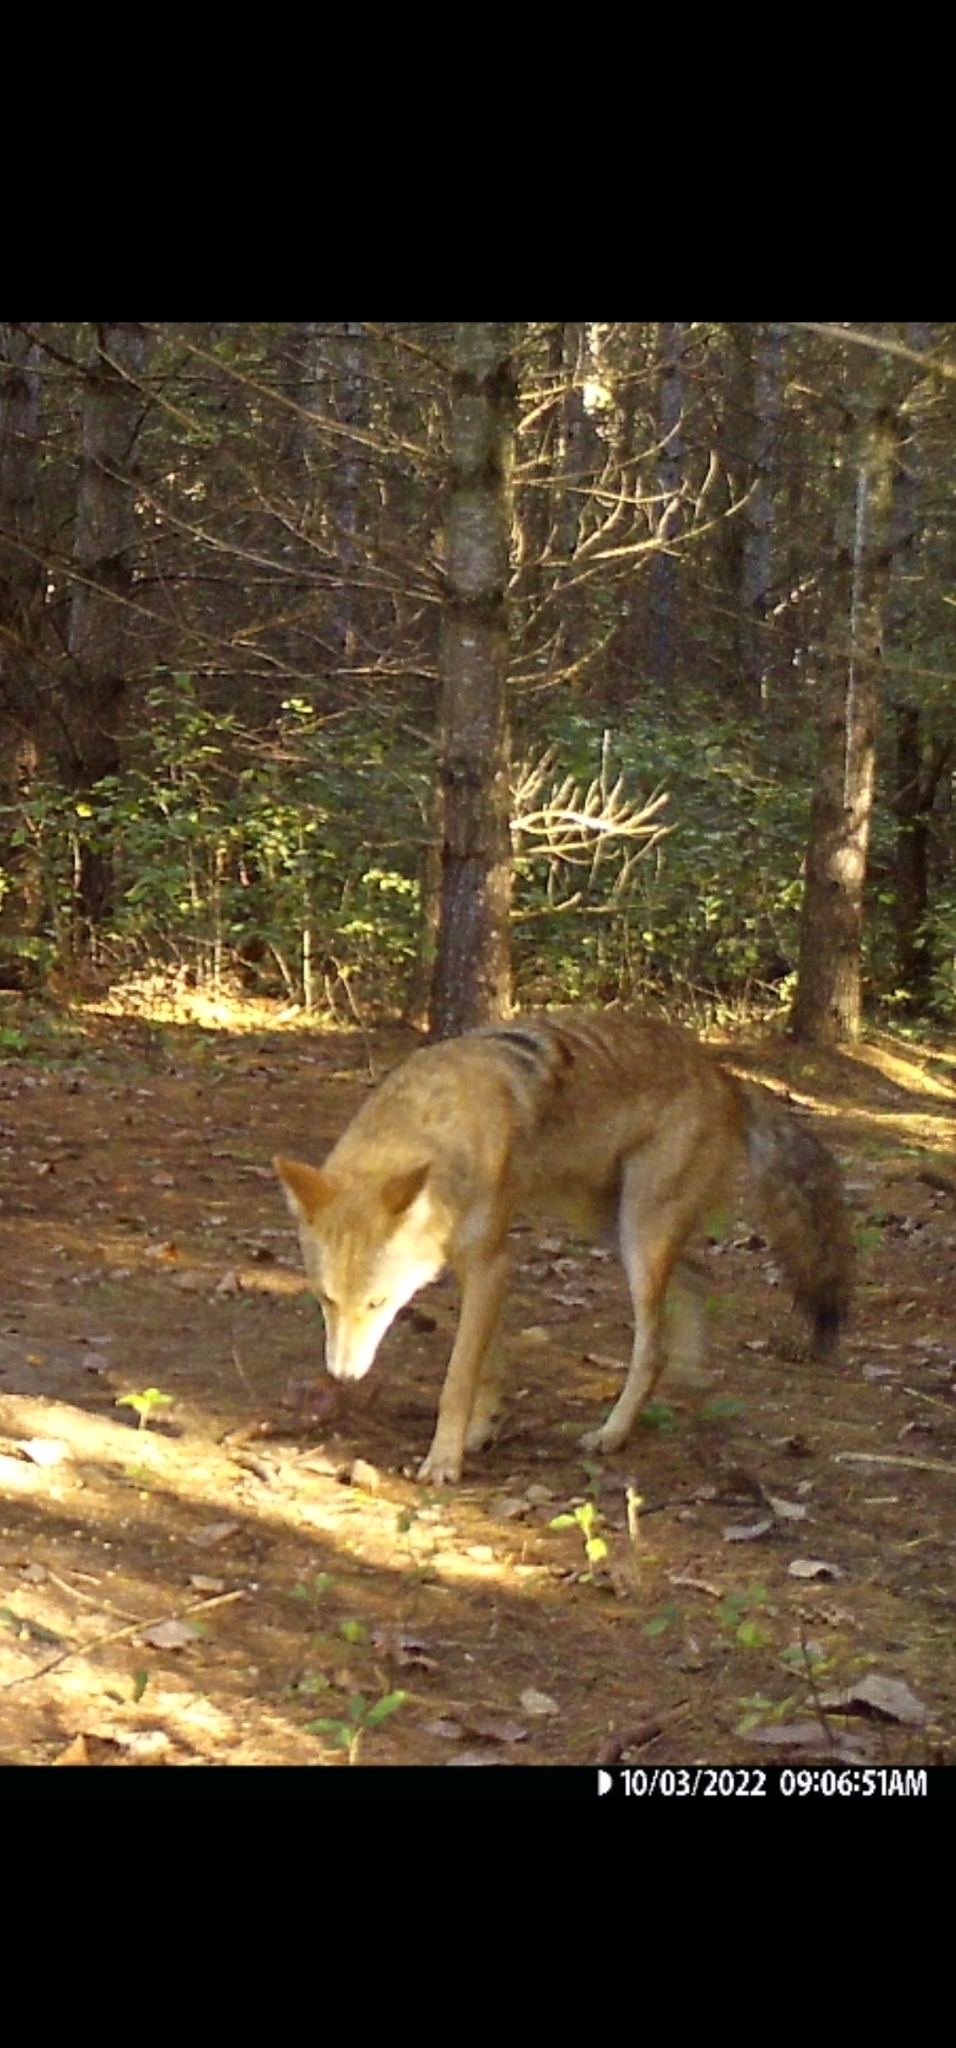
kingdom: Animalia
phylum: Chordata
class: Mammalia
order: Carnivora
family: Canidae
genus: Canis
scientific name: Canis latrans
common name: Coyote
